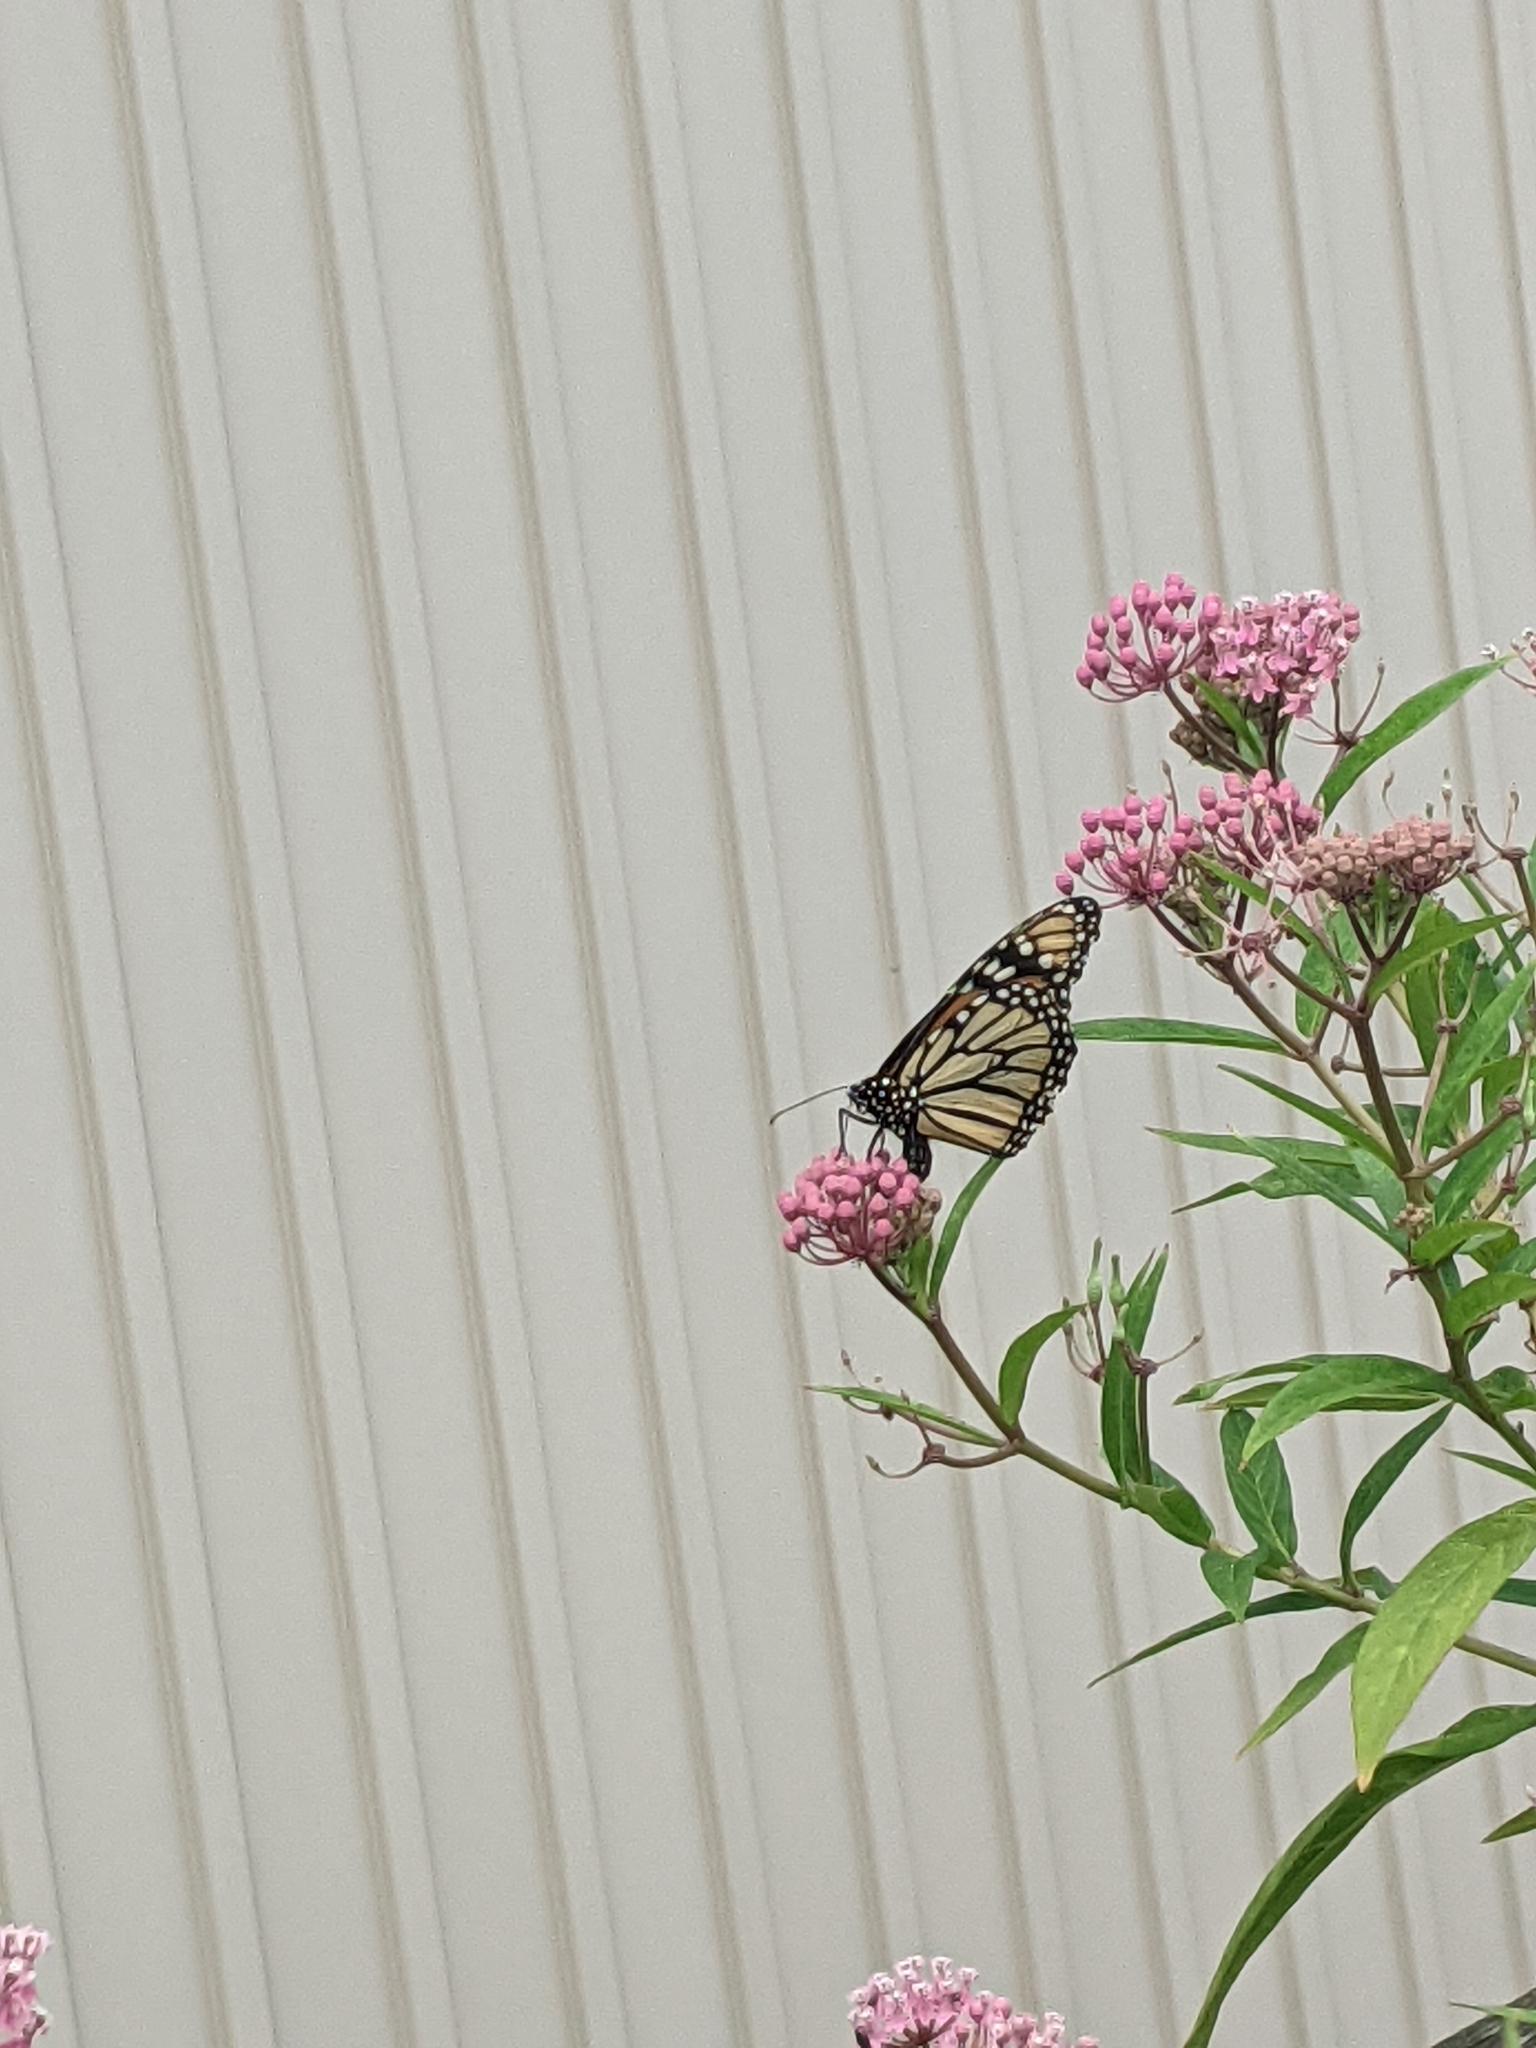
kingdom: Animalia
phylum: Arthropoda
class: Insecta
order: Lepidoptera
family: Nymphalidae
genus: Danaus
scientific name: Danaus plexippus
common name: Monarch
